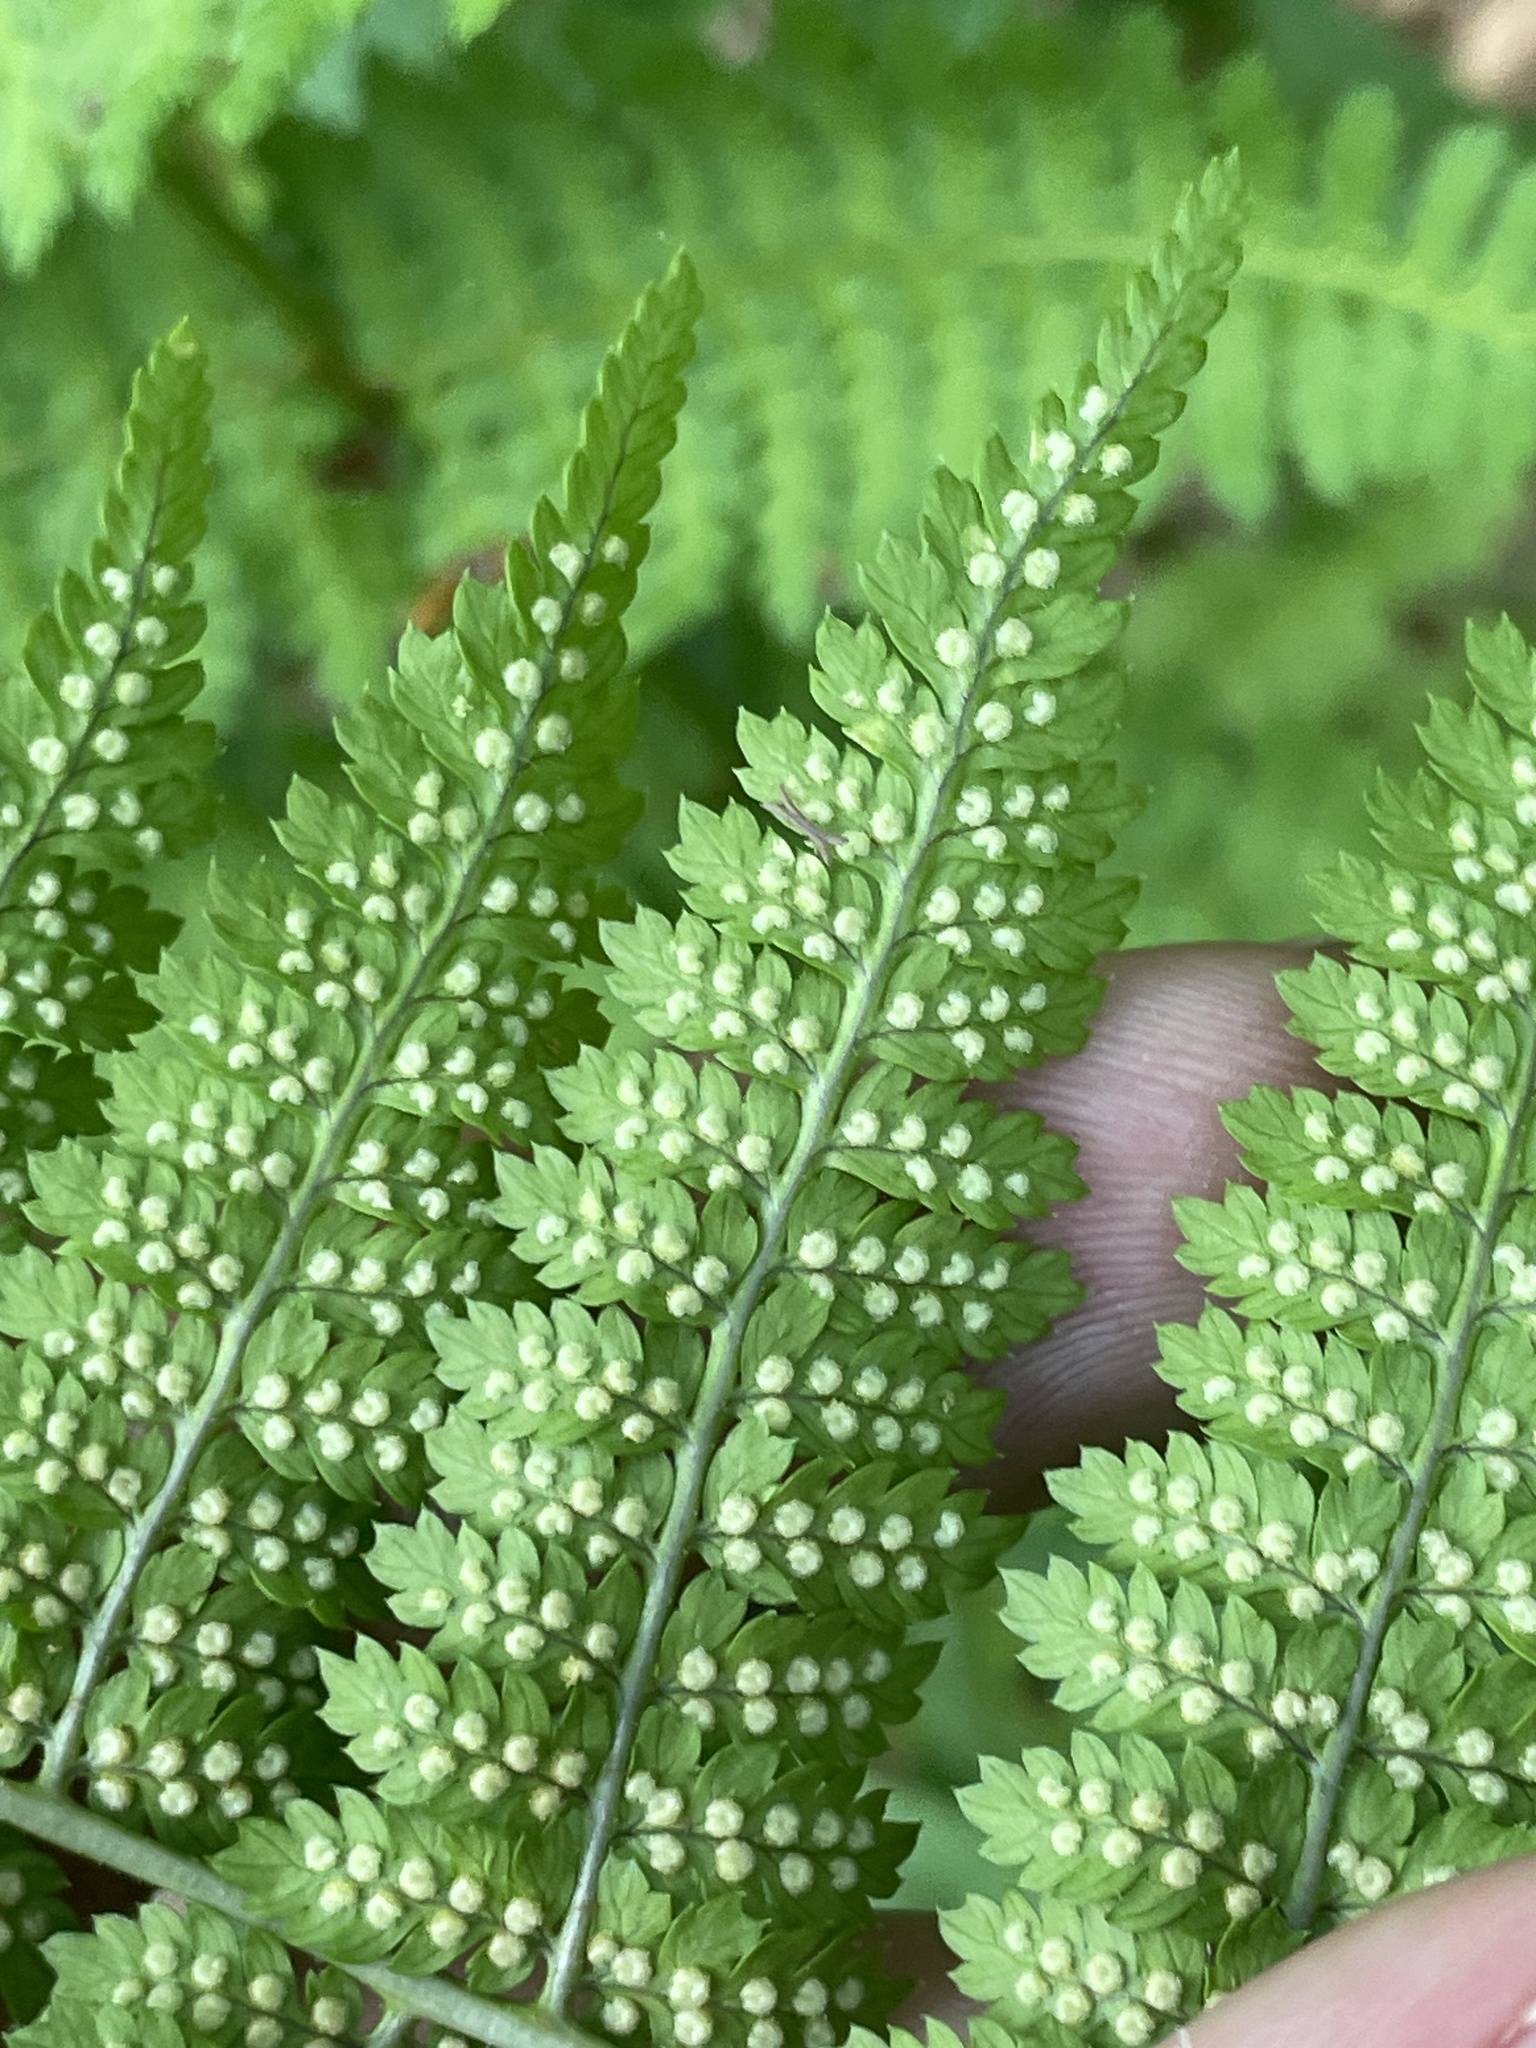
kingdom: Plantae
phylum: Tracheophyta
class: Polypodiopsida
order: Polypodiales
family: Dryopteridaceae
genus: Dryopteris
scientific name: Dryopteris intermedia
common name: Evergreen wood fern
